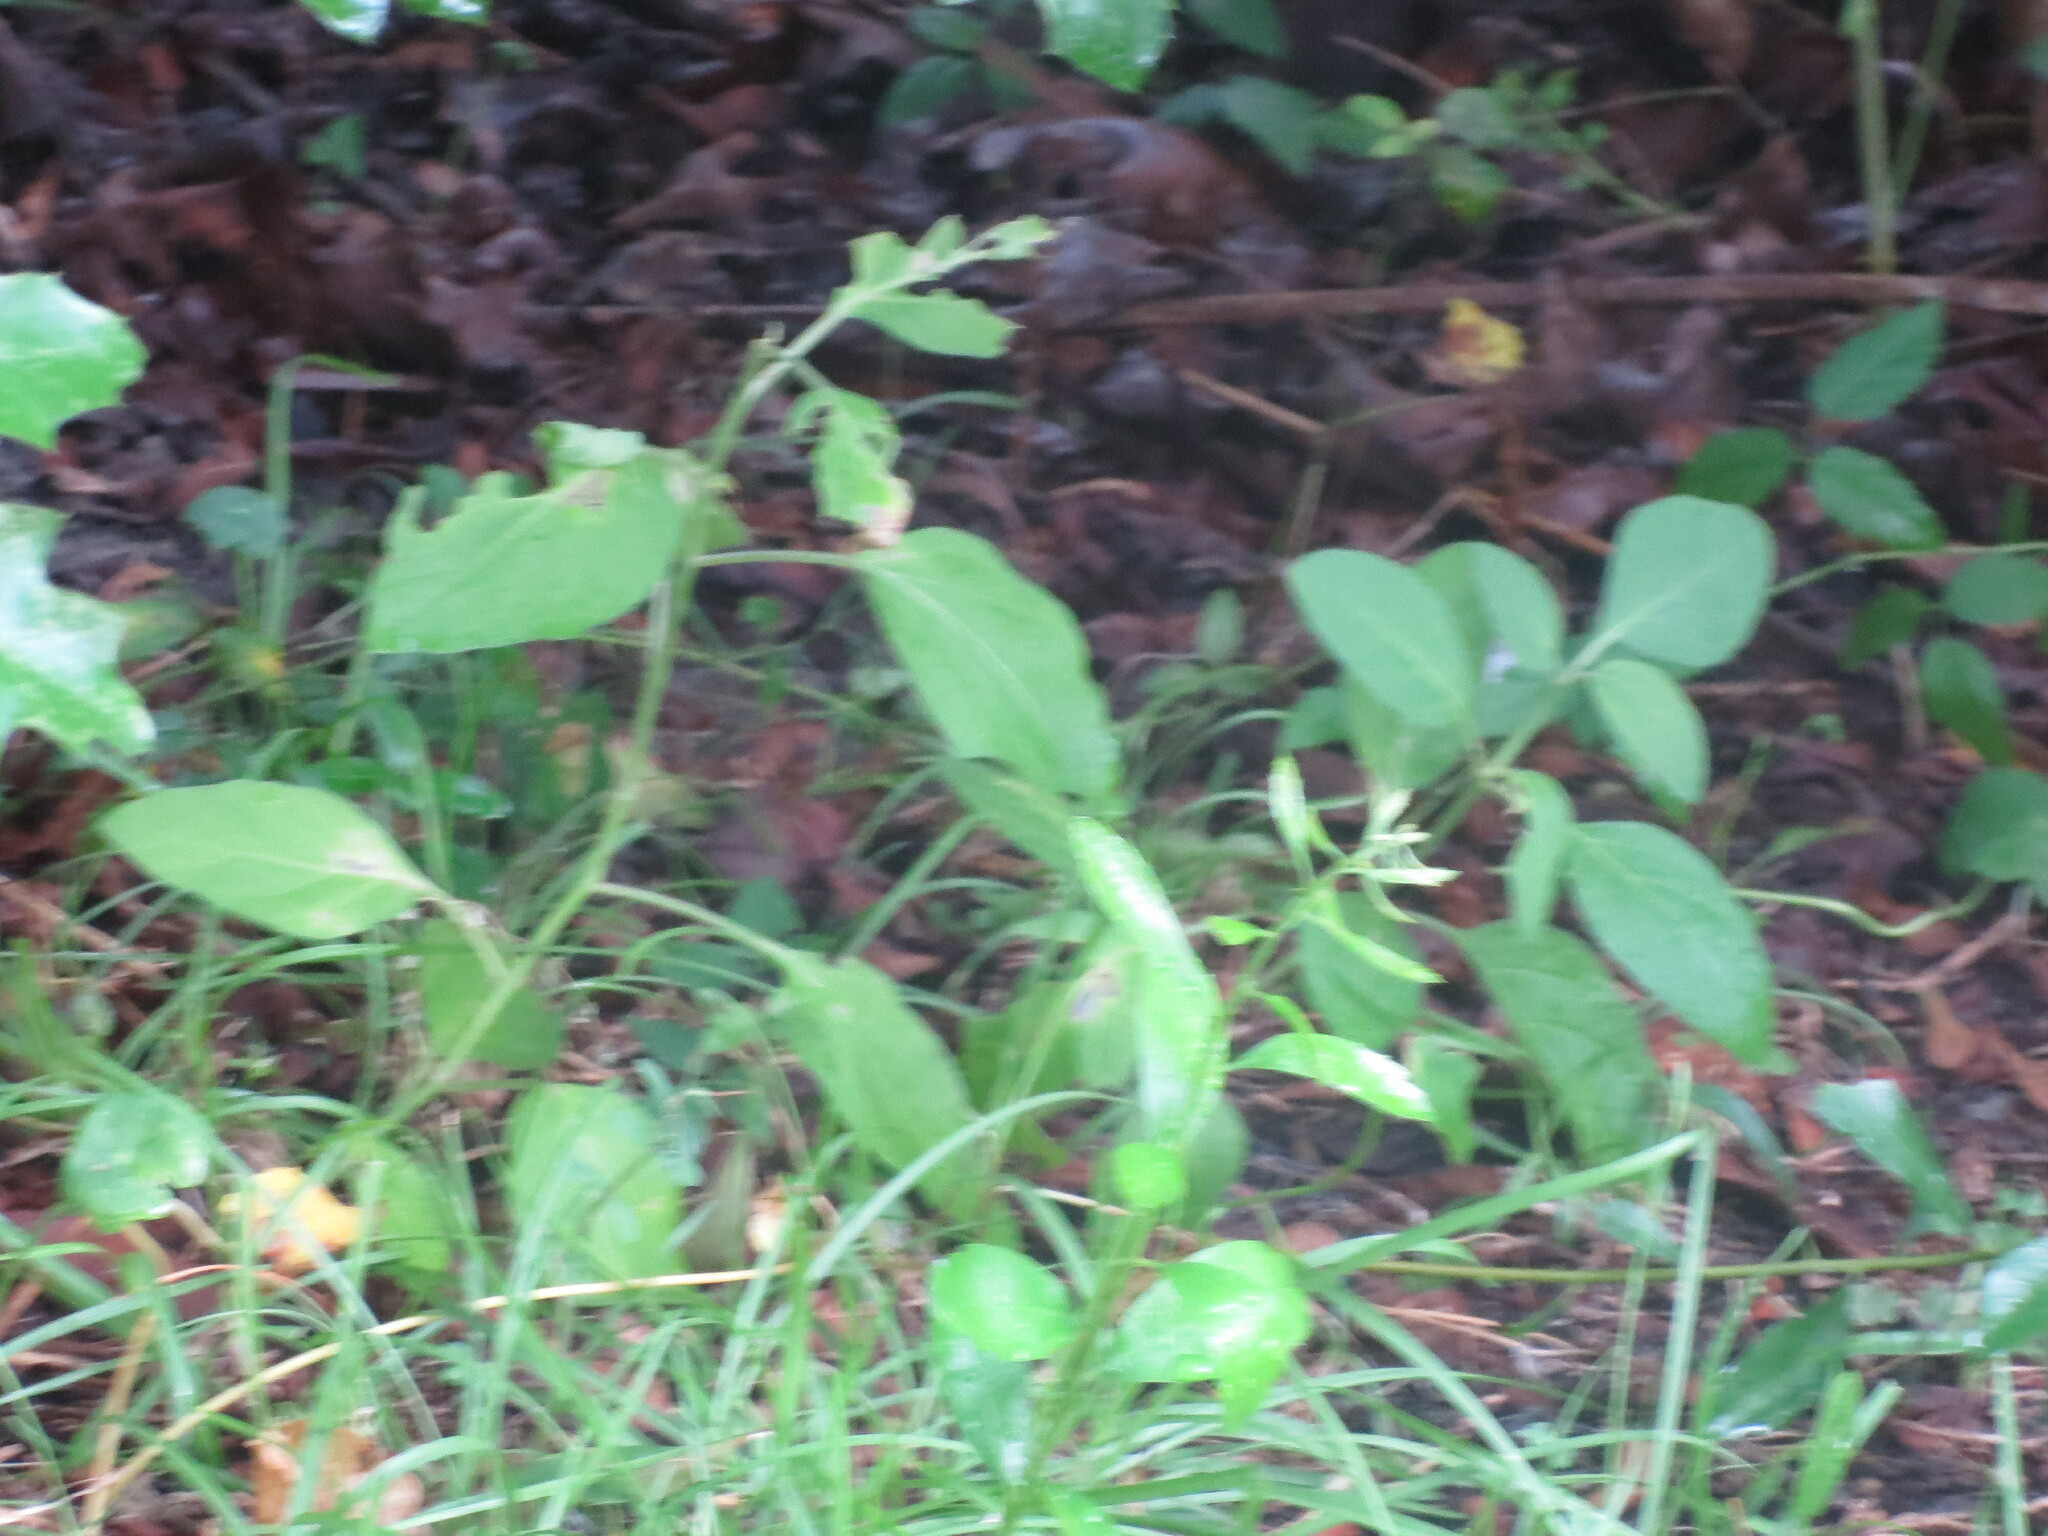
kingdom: Plantae
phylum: Tracheophyta
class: Magnoliopsida
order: Solanales
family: Solanaceae
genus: Physalis
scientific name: Physalis walteri
